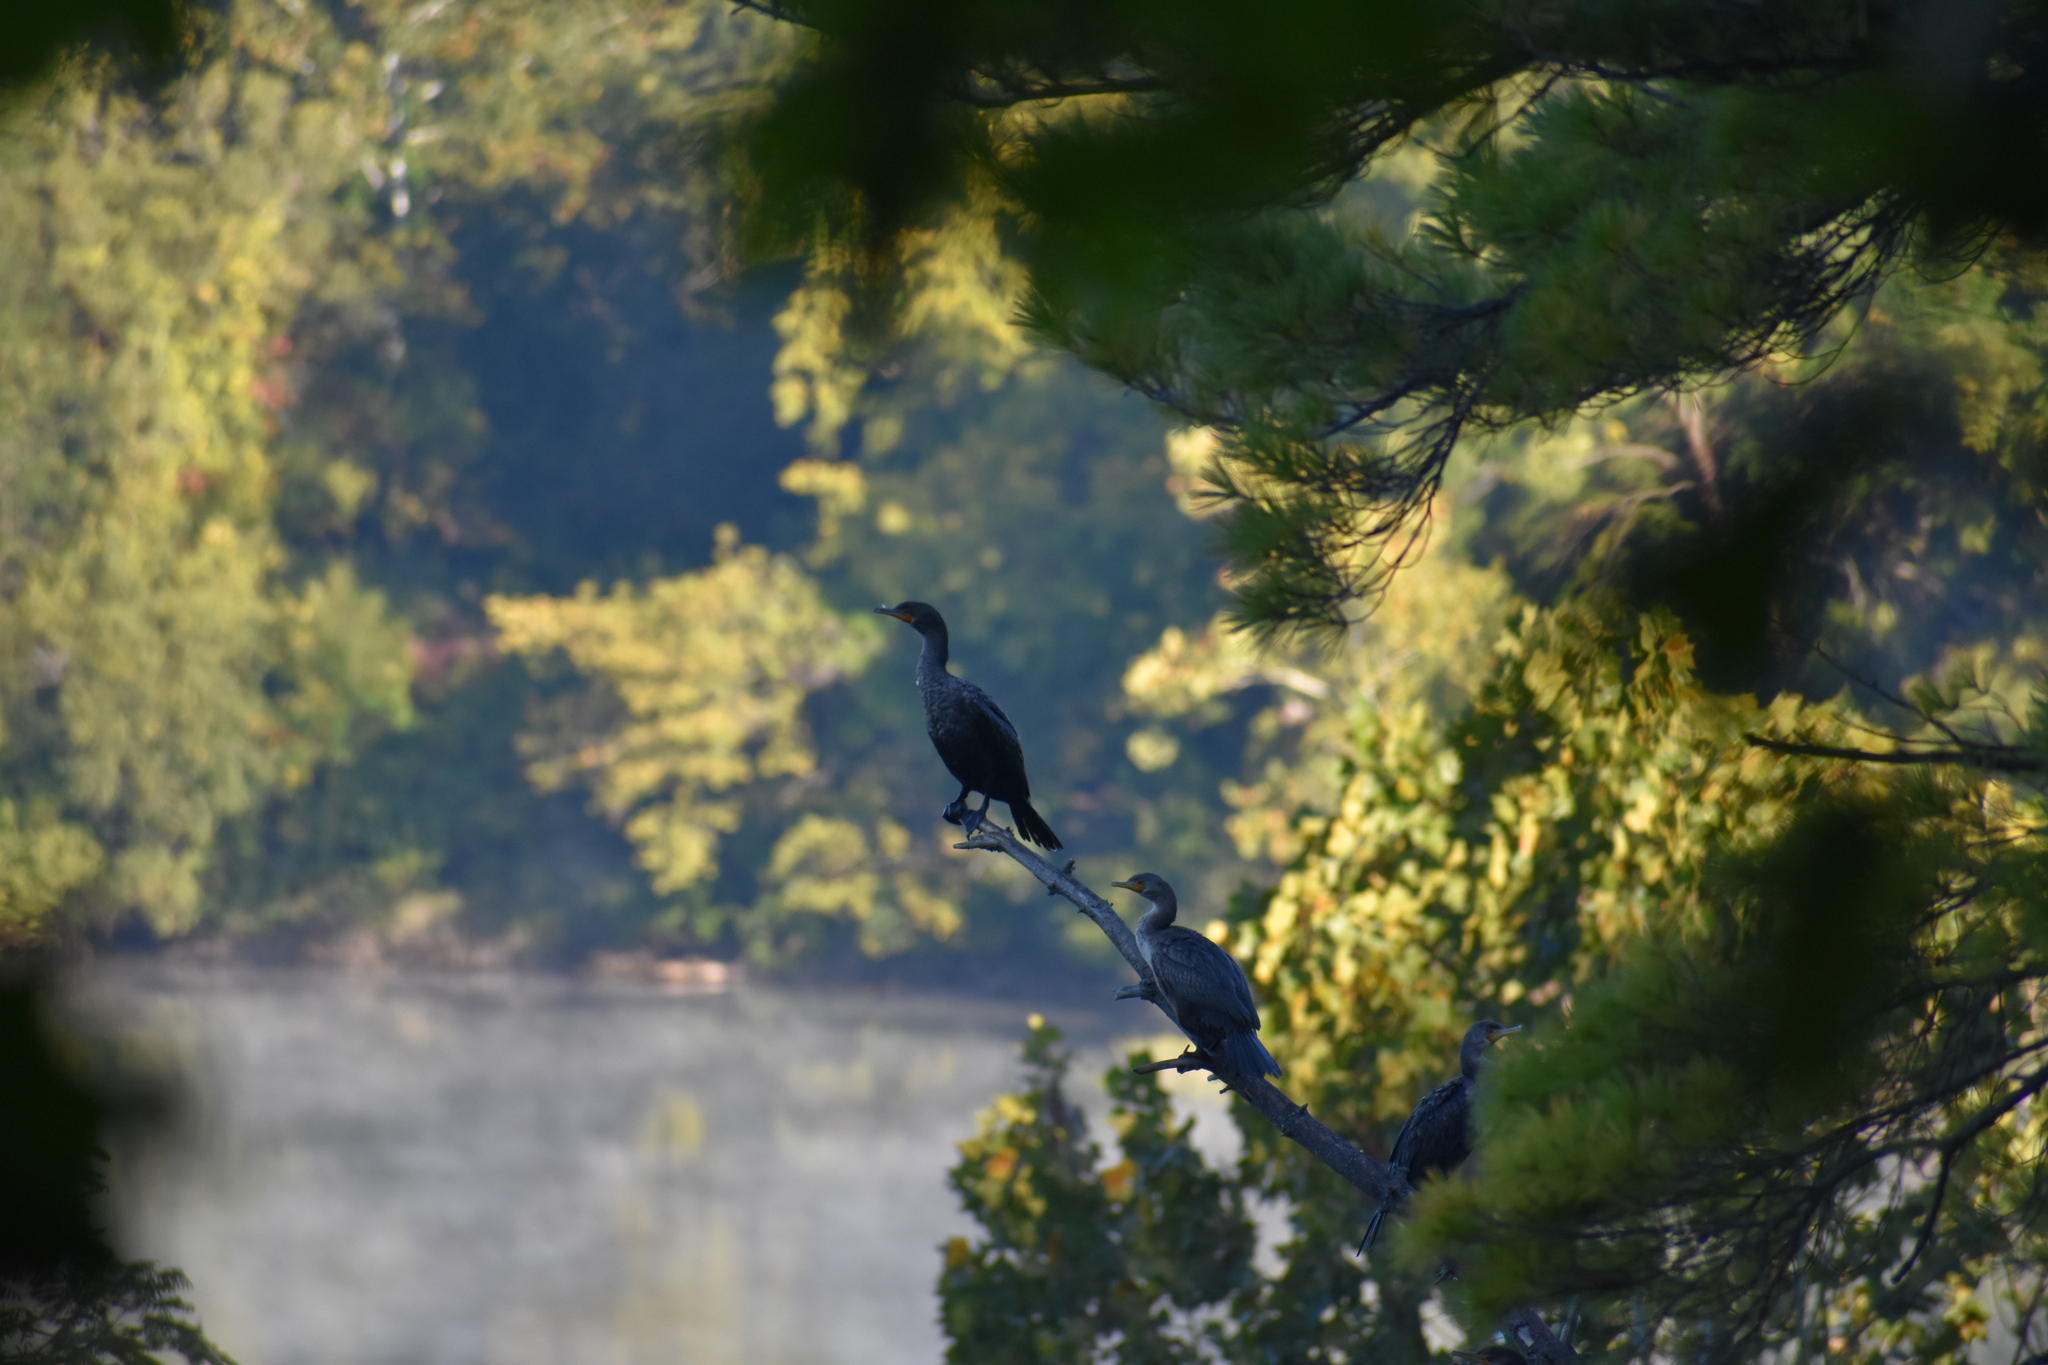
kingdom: Animalia
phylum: Chordata
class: Aves
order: Suliformes
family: Phalacrocoracidae
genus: Phalacrocorax
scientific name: Phalacrocorax auritus
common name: Double-crested cormorant
